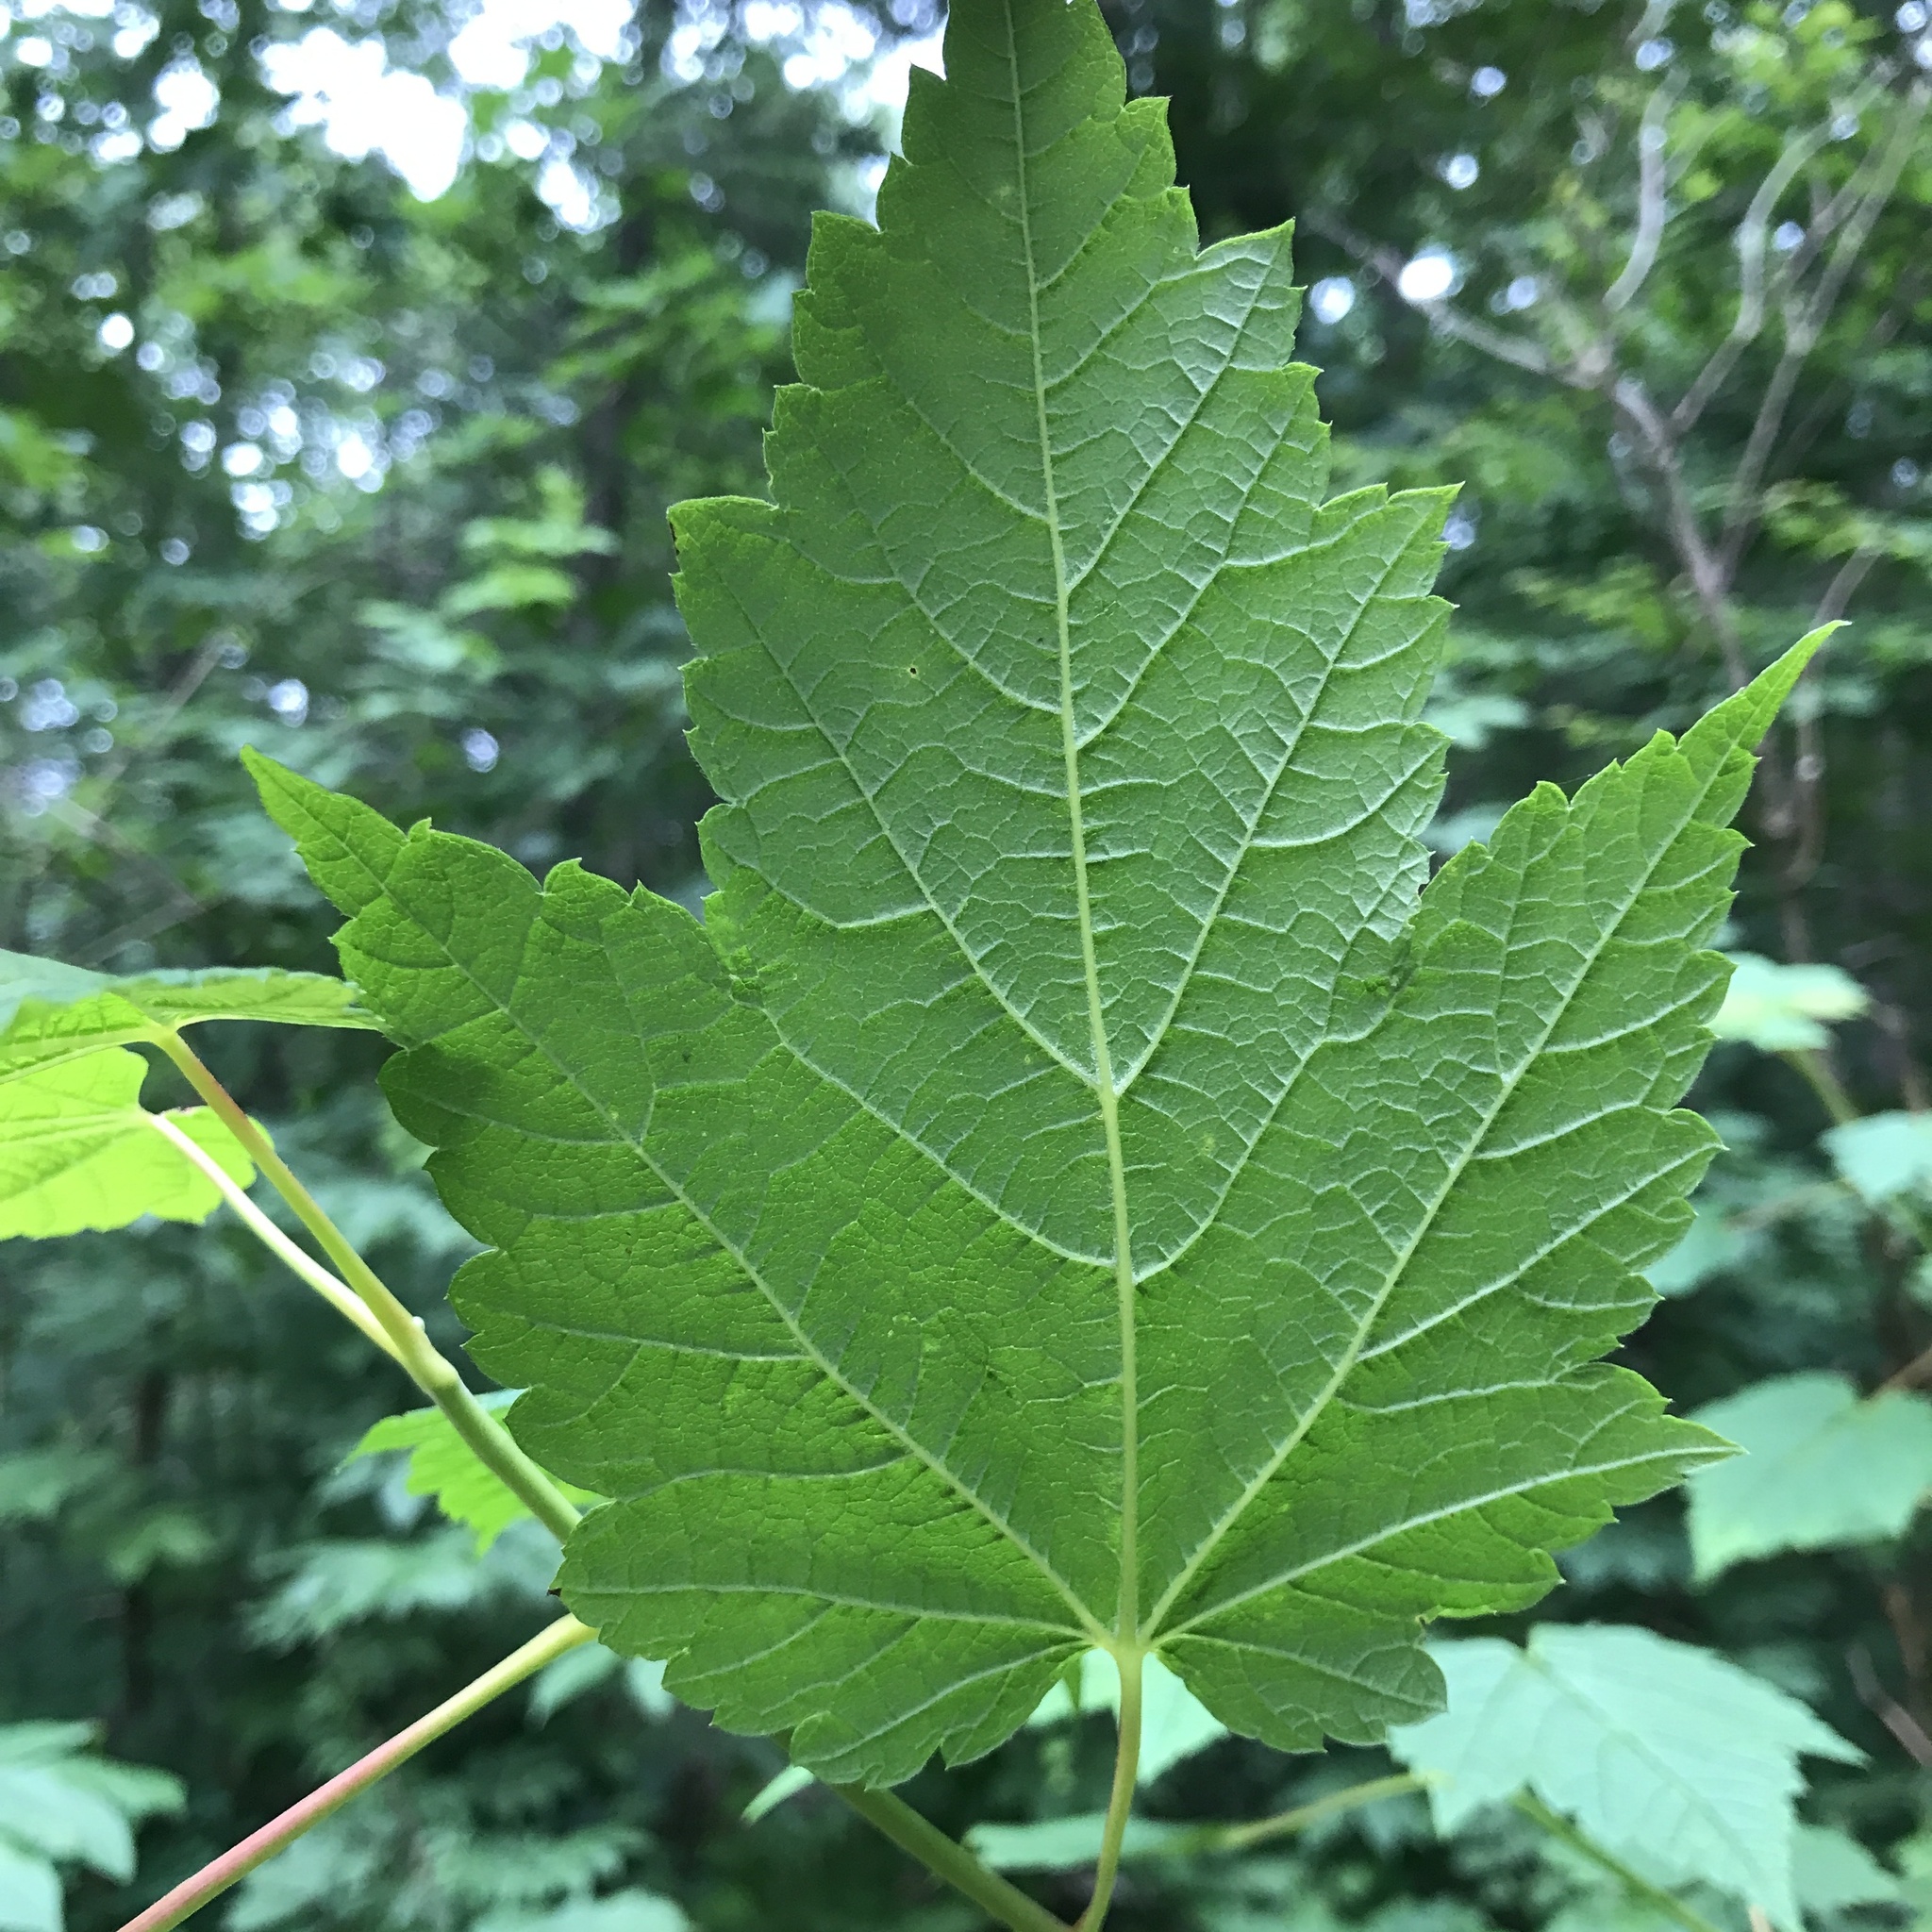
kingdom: Plantae
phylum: Tracheophyta
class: Magnoliopsida
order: Sapindales
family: Sapindaceae
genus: Acer
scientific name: Acer spicatum
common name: Mountain maple
